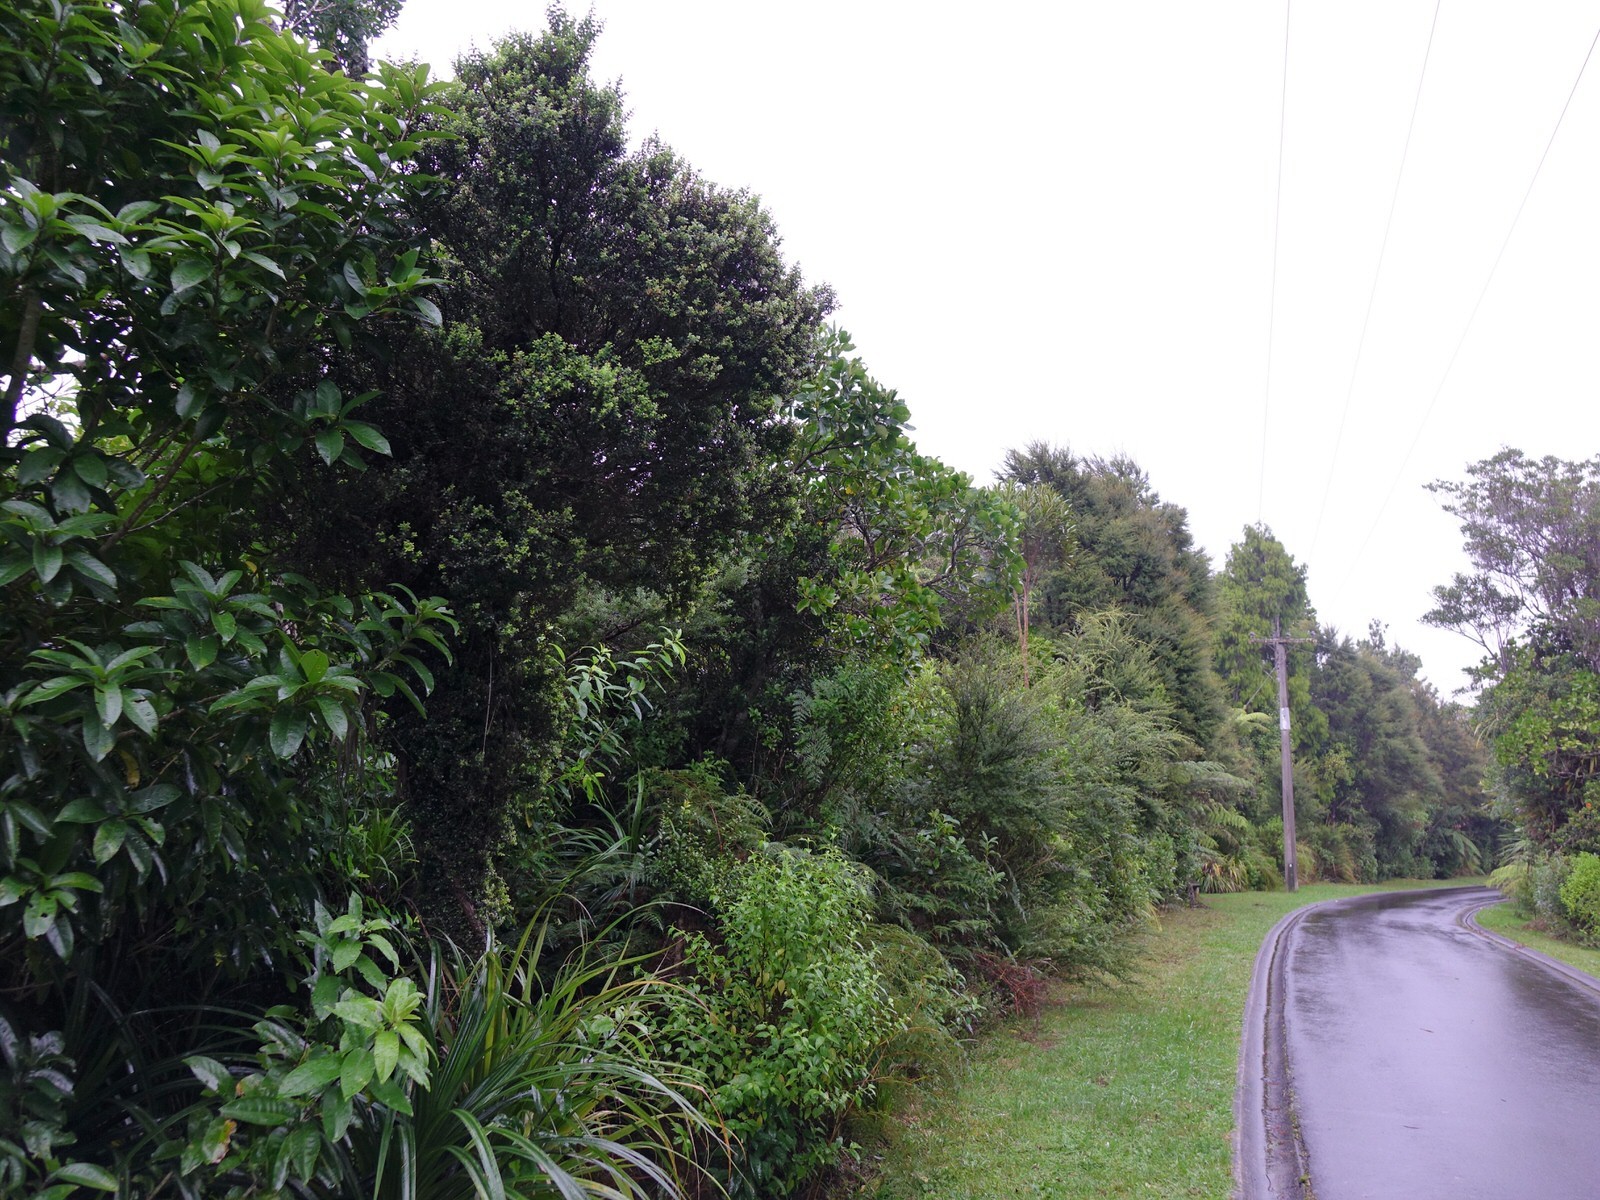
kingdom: Plantae
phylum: Tracheophyta
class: Magnoliopsida
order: Myrtales
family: Myrtaceae
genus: Metrosideros
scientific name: Metrosideros perforata
